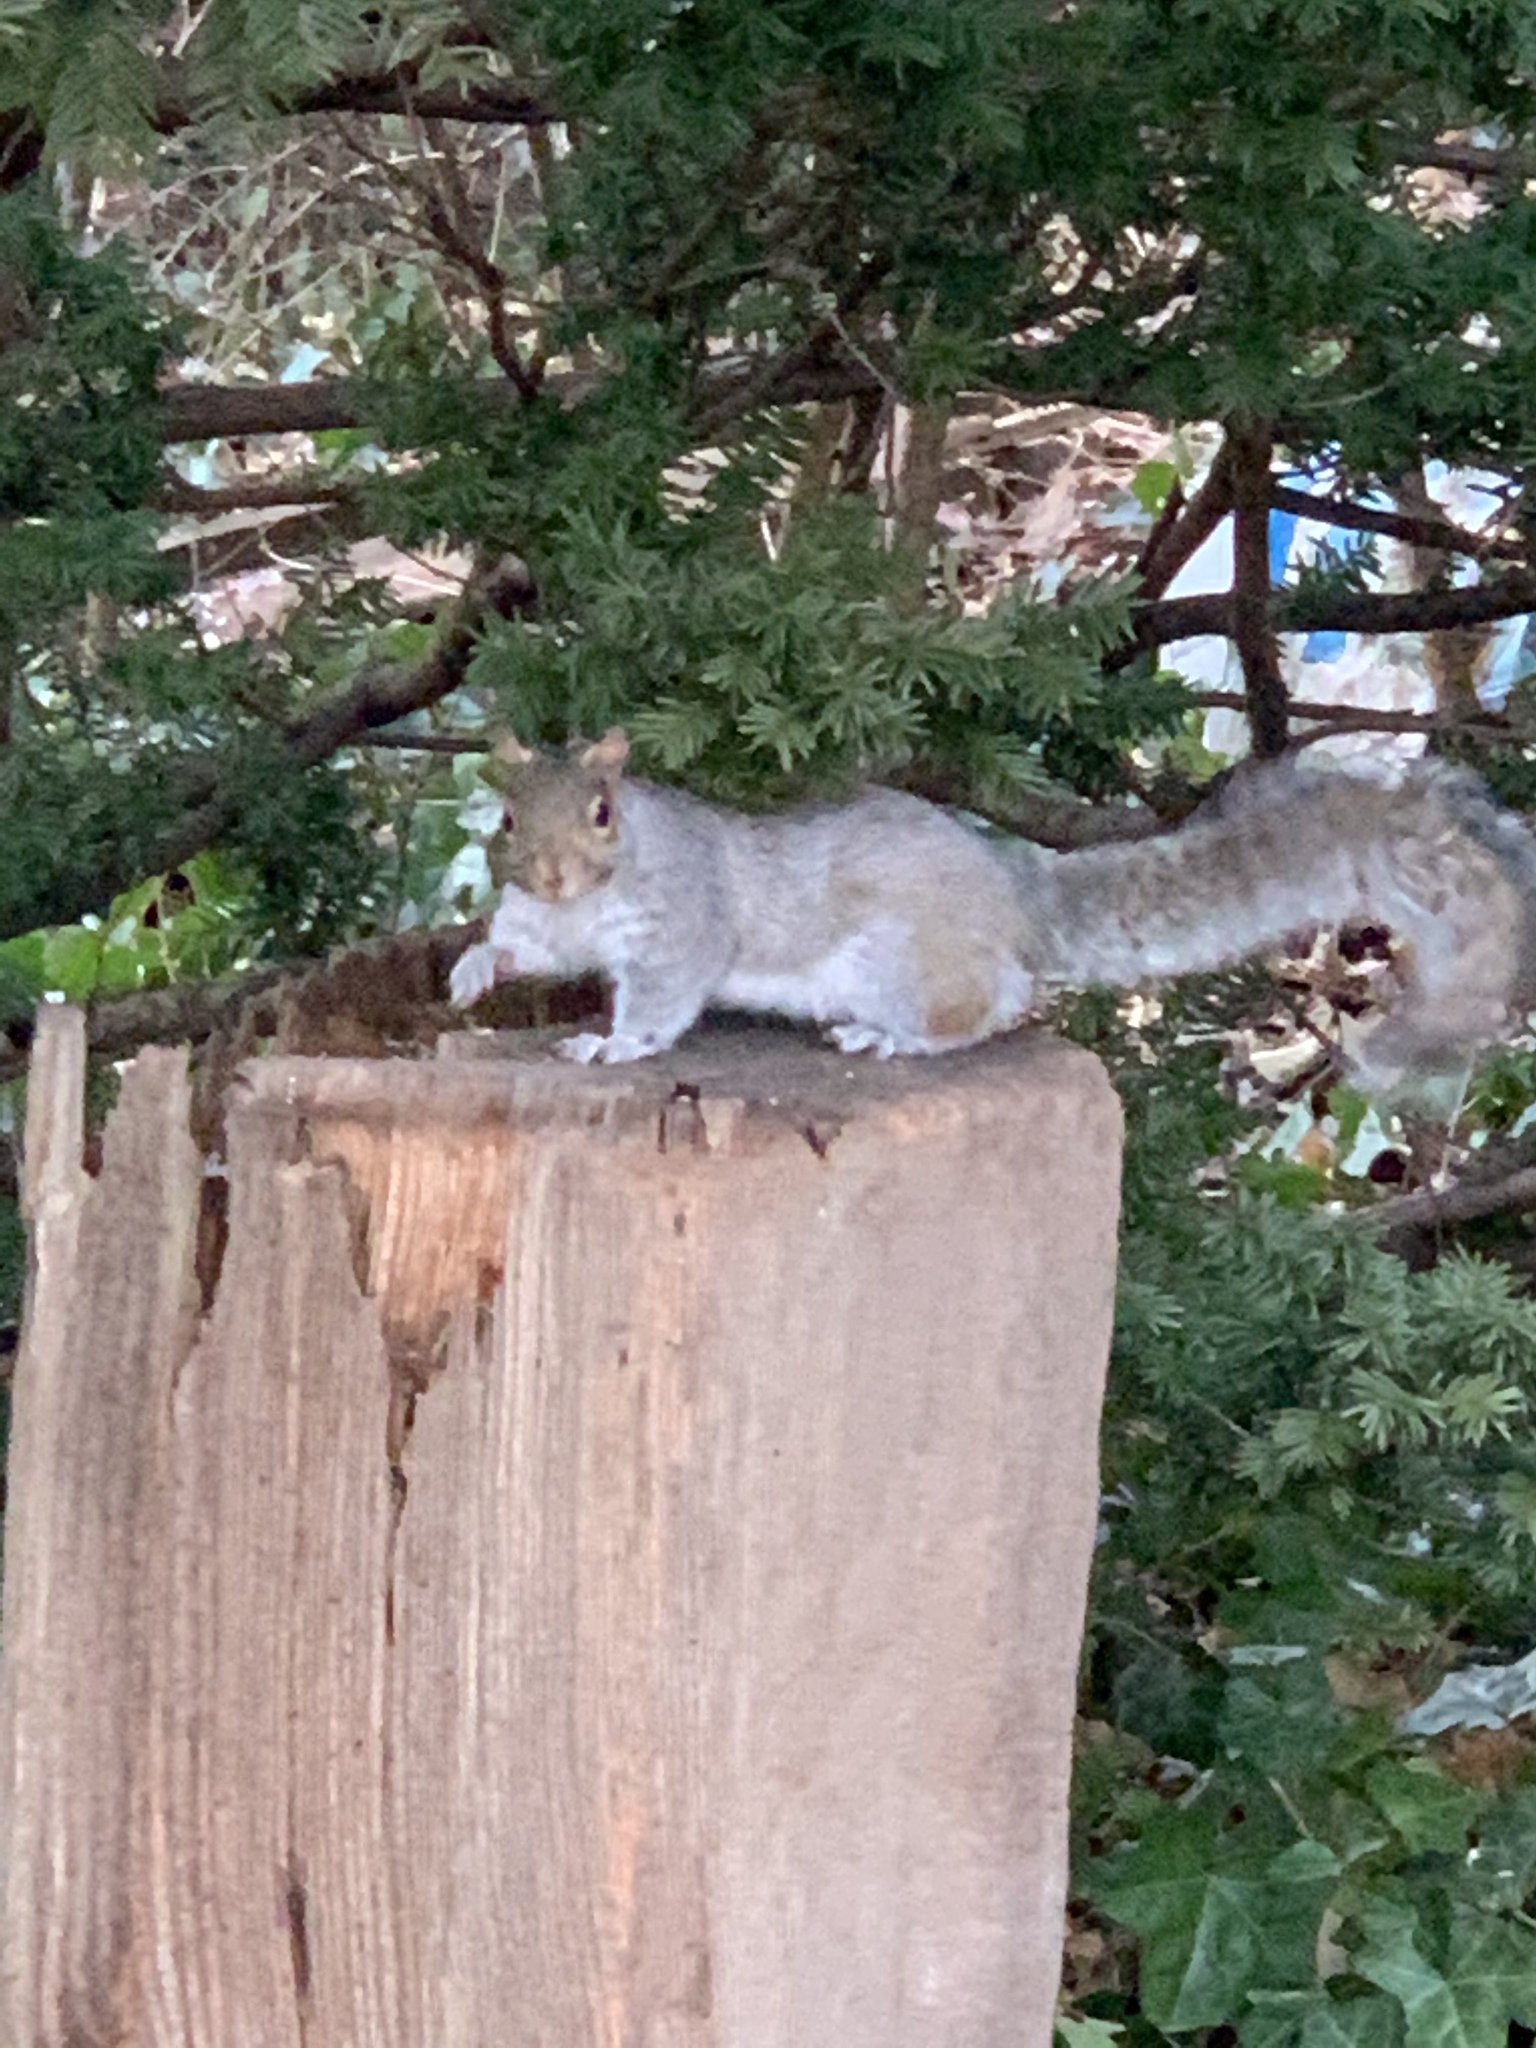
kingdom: Animalia
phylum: Chordata
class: Mammalia
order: Rodentia
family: Sciuridae
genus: Sciurus
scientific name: Sciurus carolinensis
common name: Eastern gray squirrel
